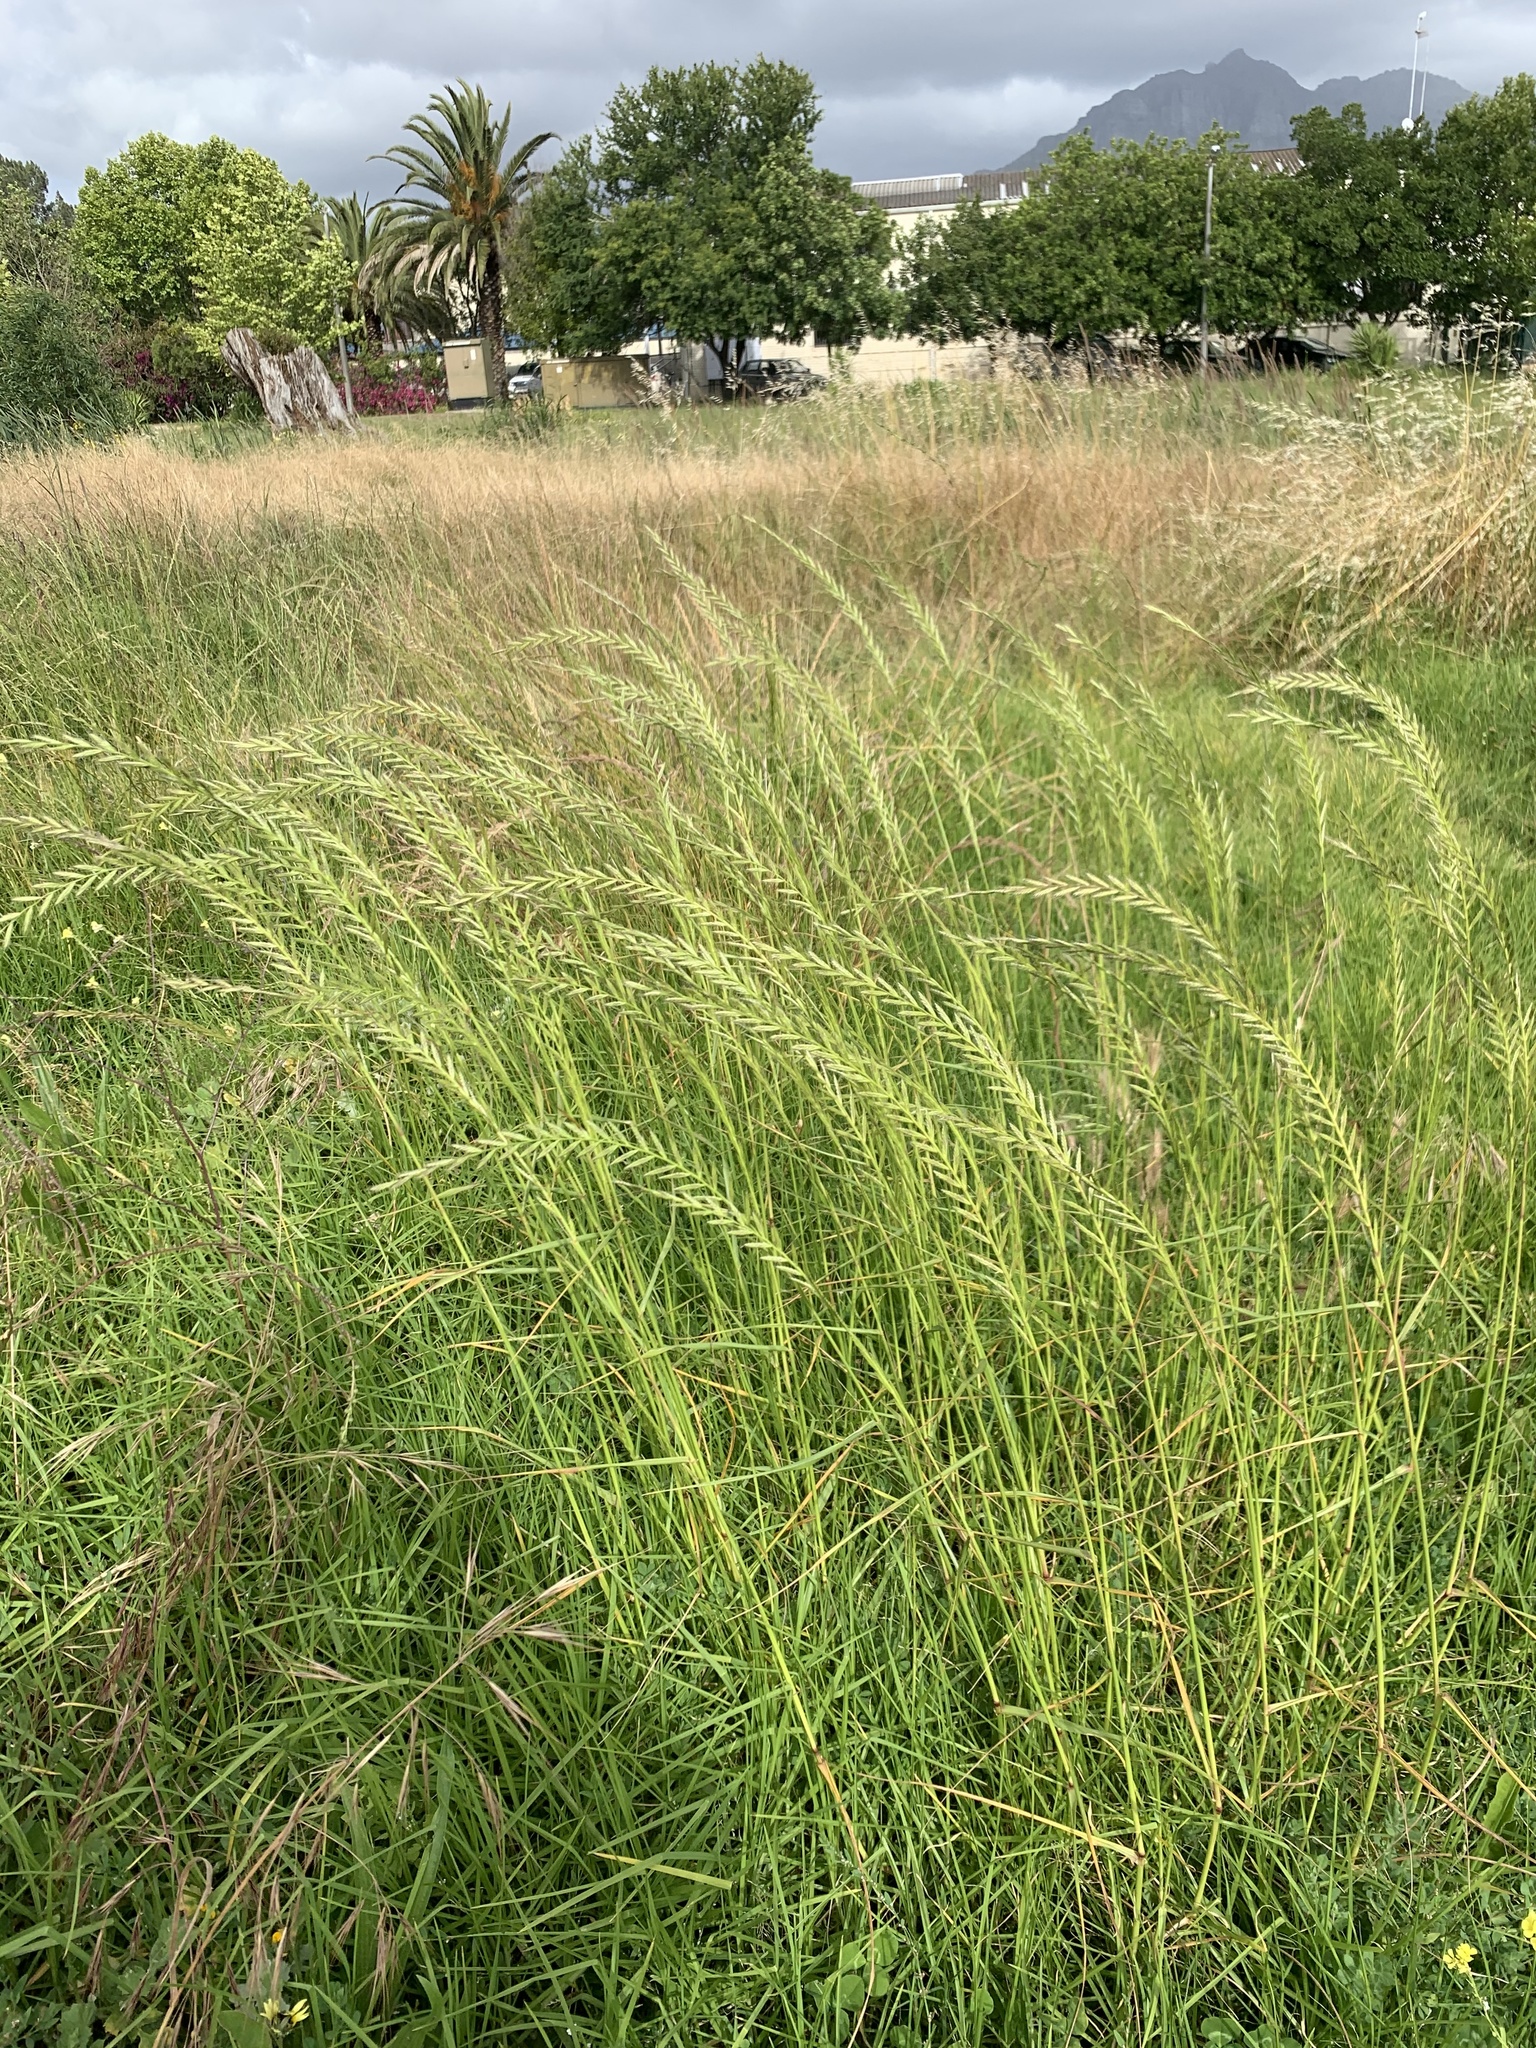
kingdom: Plantae
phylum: Tracheophyta
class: Liliopsida
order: Poales
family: Poaceae
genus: Lolium
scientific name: Lolium multiflorum
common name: Annual ryegrass
